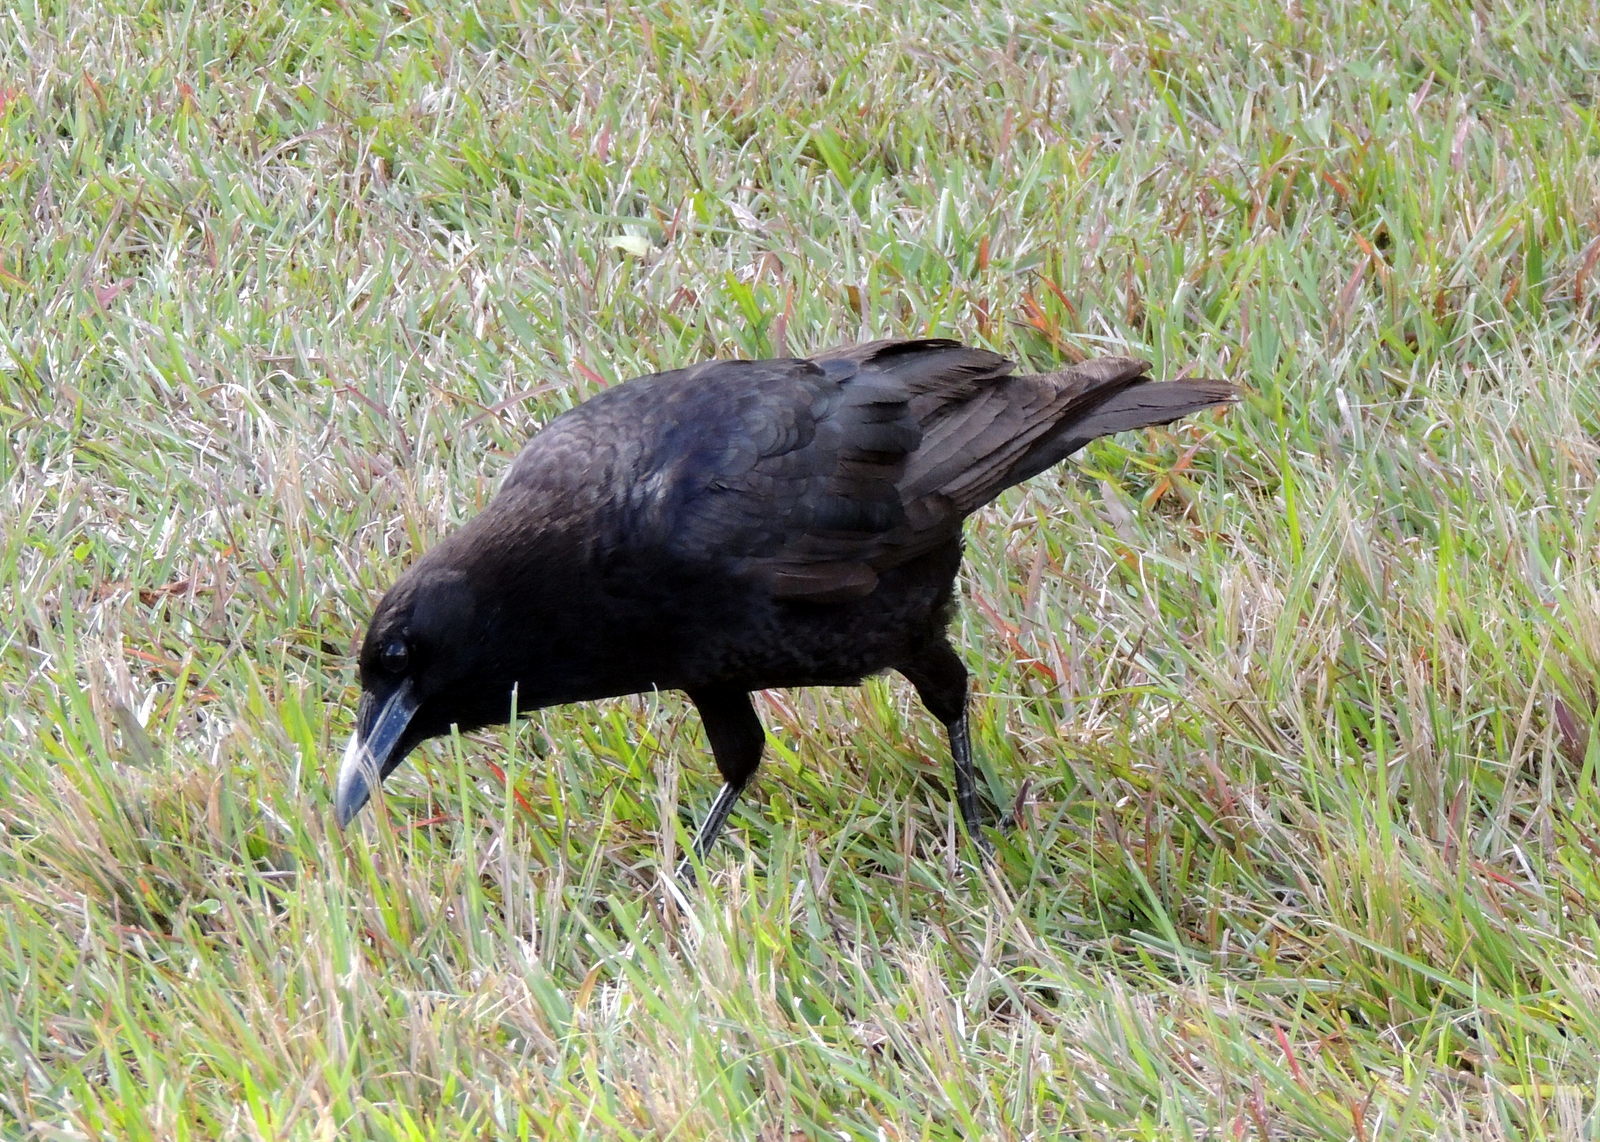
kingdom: Animalia
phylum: Chordata
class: Aves
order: Passeriformes
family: Corvidae
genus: Corvus
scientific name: Corvus brachyrhynchos
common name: American crow
